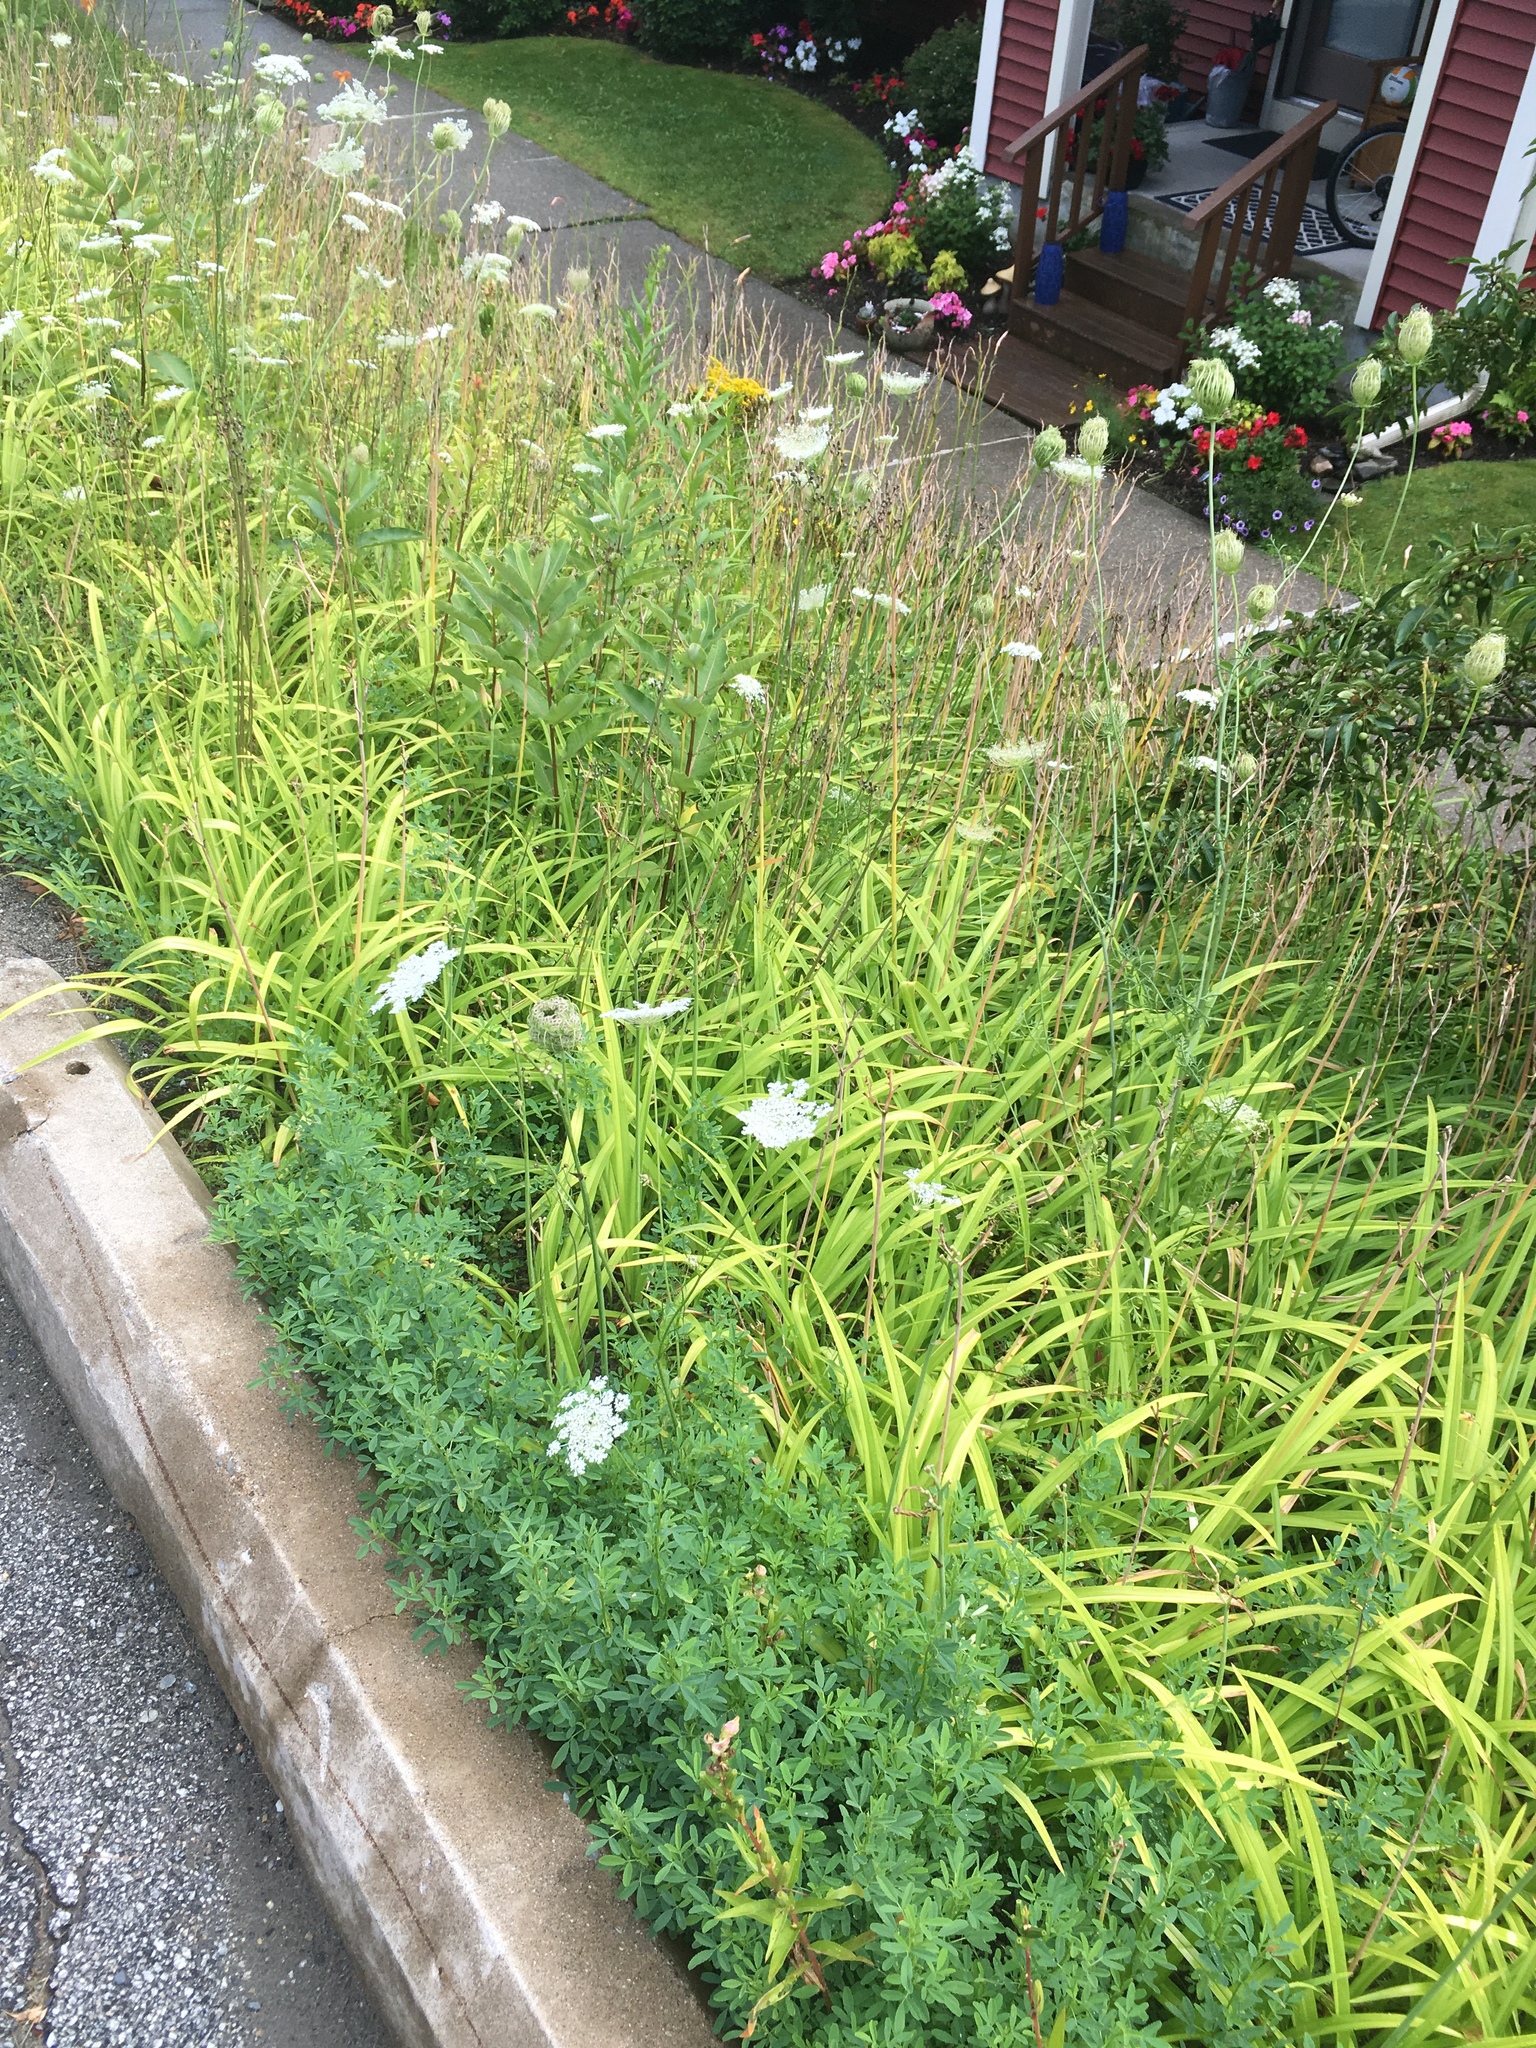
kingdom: Plantae
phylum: Tracheophyta
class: Magnoliopsida
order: Apiales
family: Apiaceae
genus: Daucus
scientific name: Daucus carota
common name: Wild carrot
